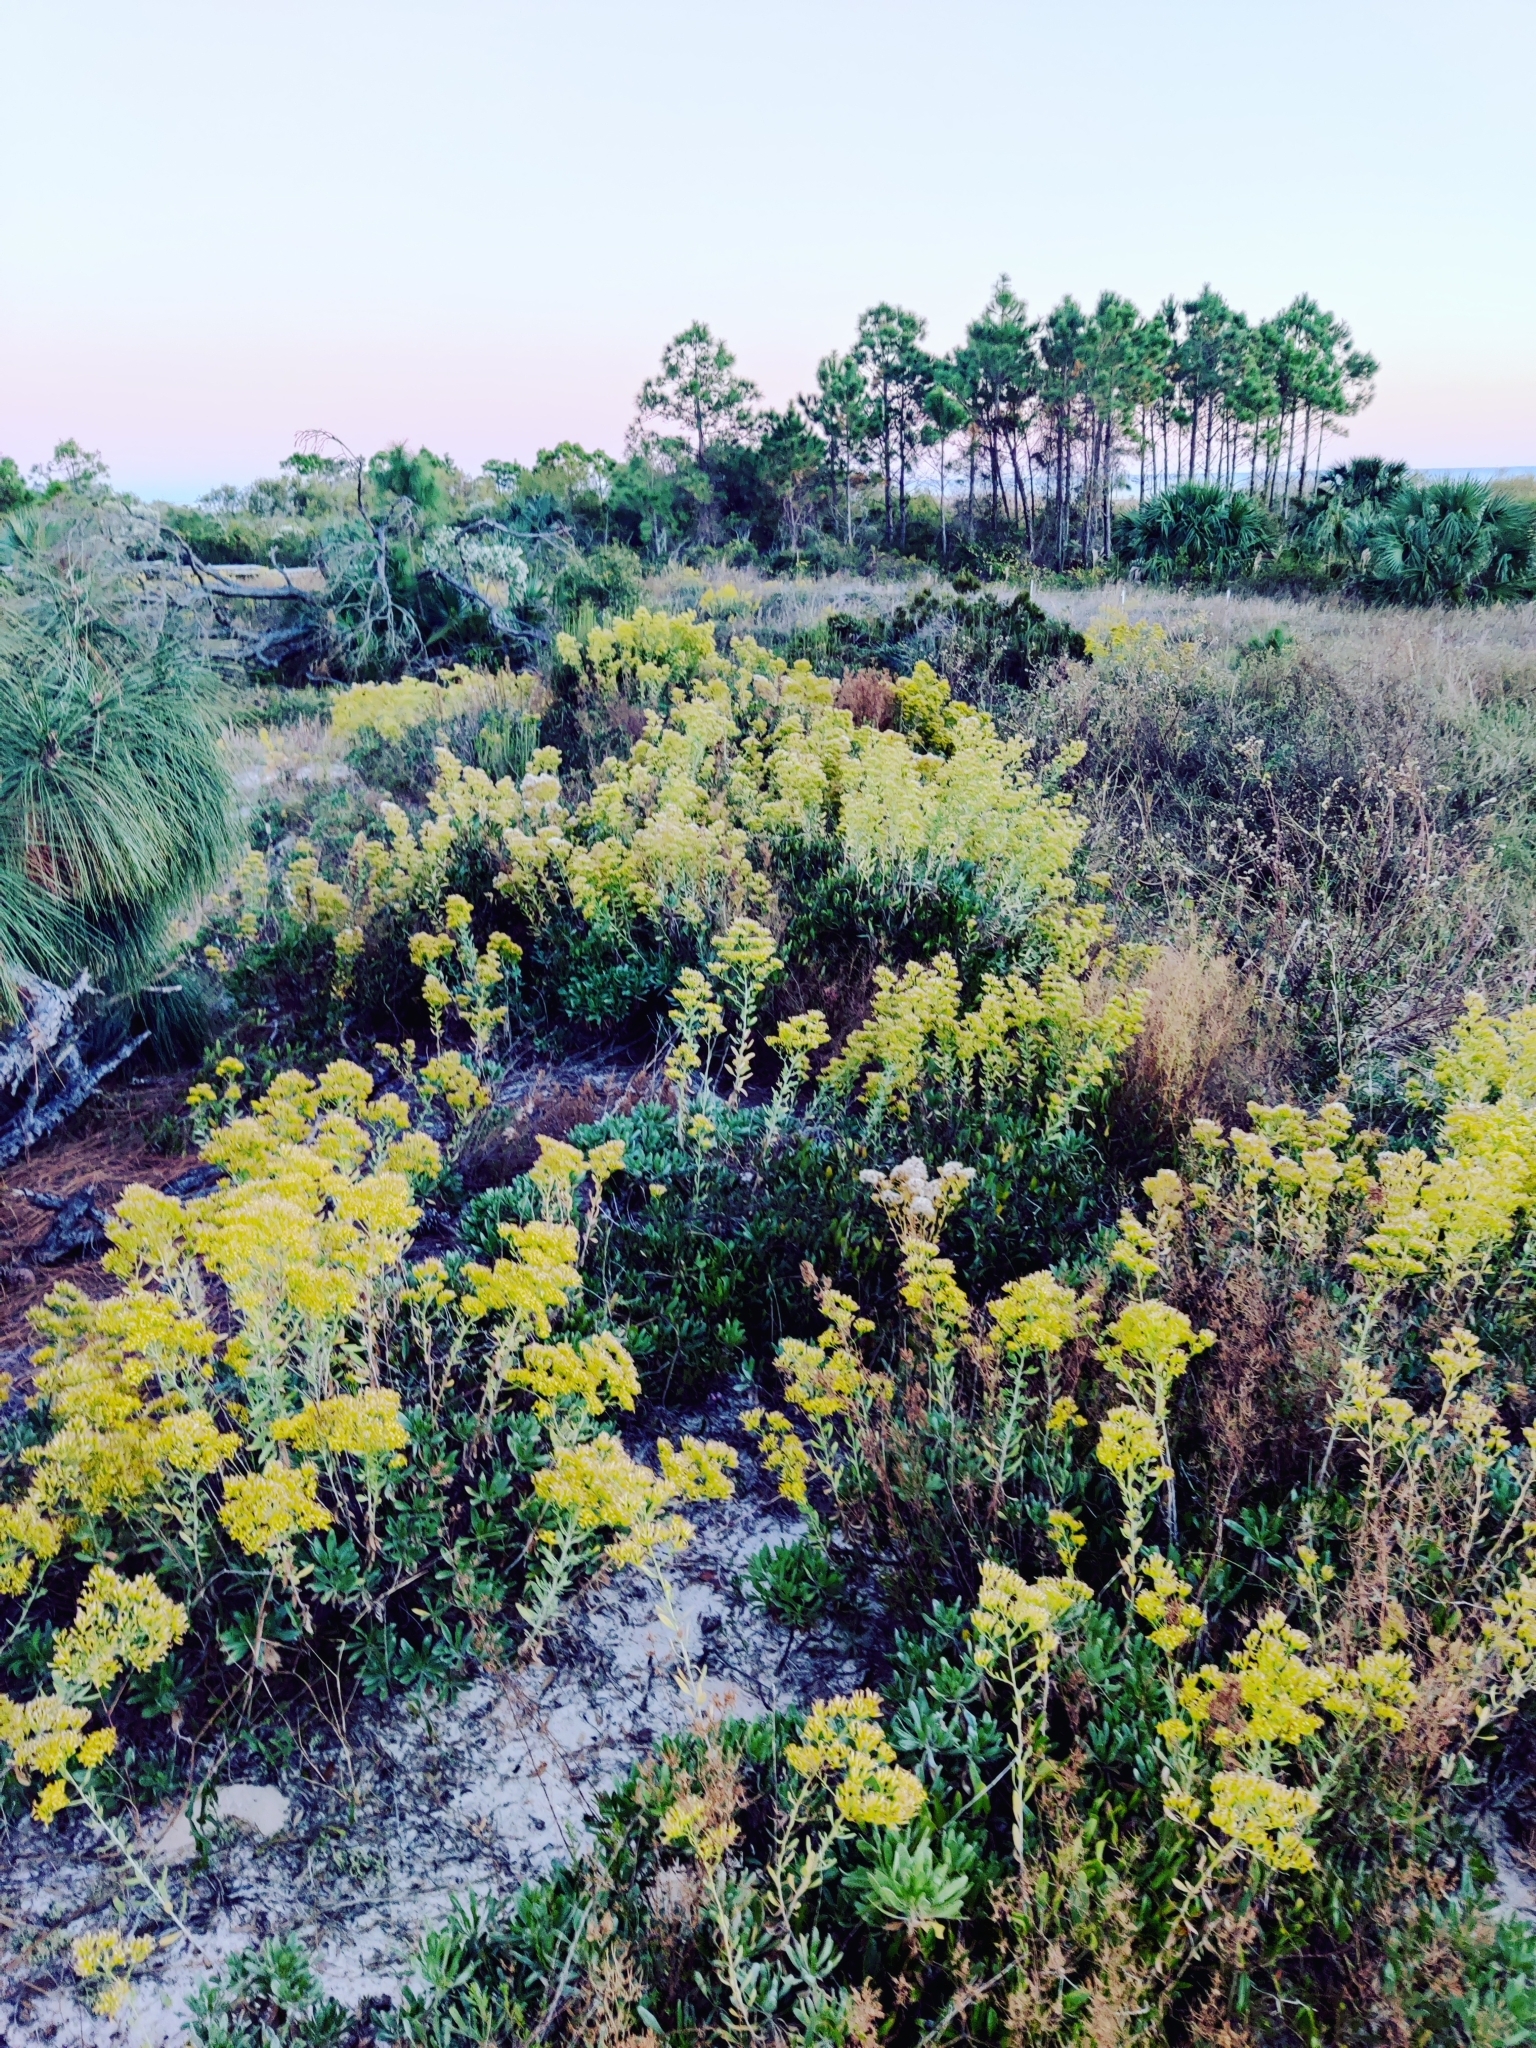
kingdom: Plantae
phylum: Tracheophyta
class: Magnoliopsida
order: Asterales
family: Asteraceae
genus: Chrysoma
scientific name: Chrysoma pauciflosculosa
